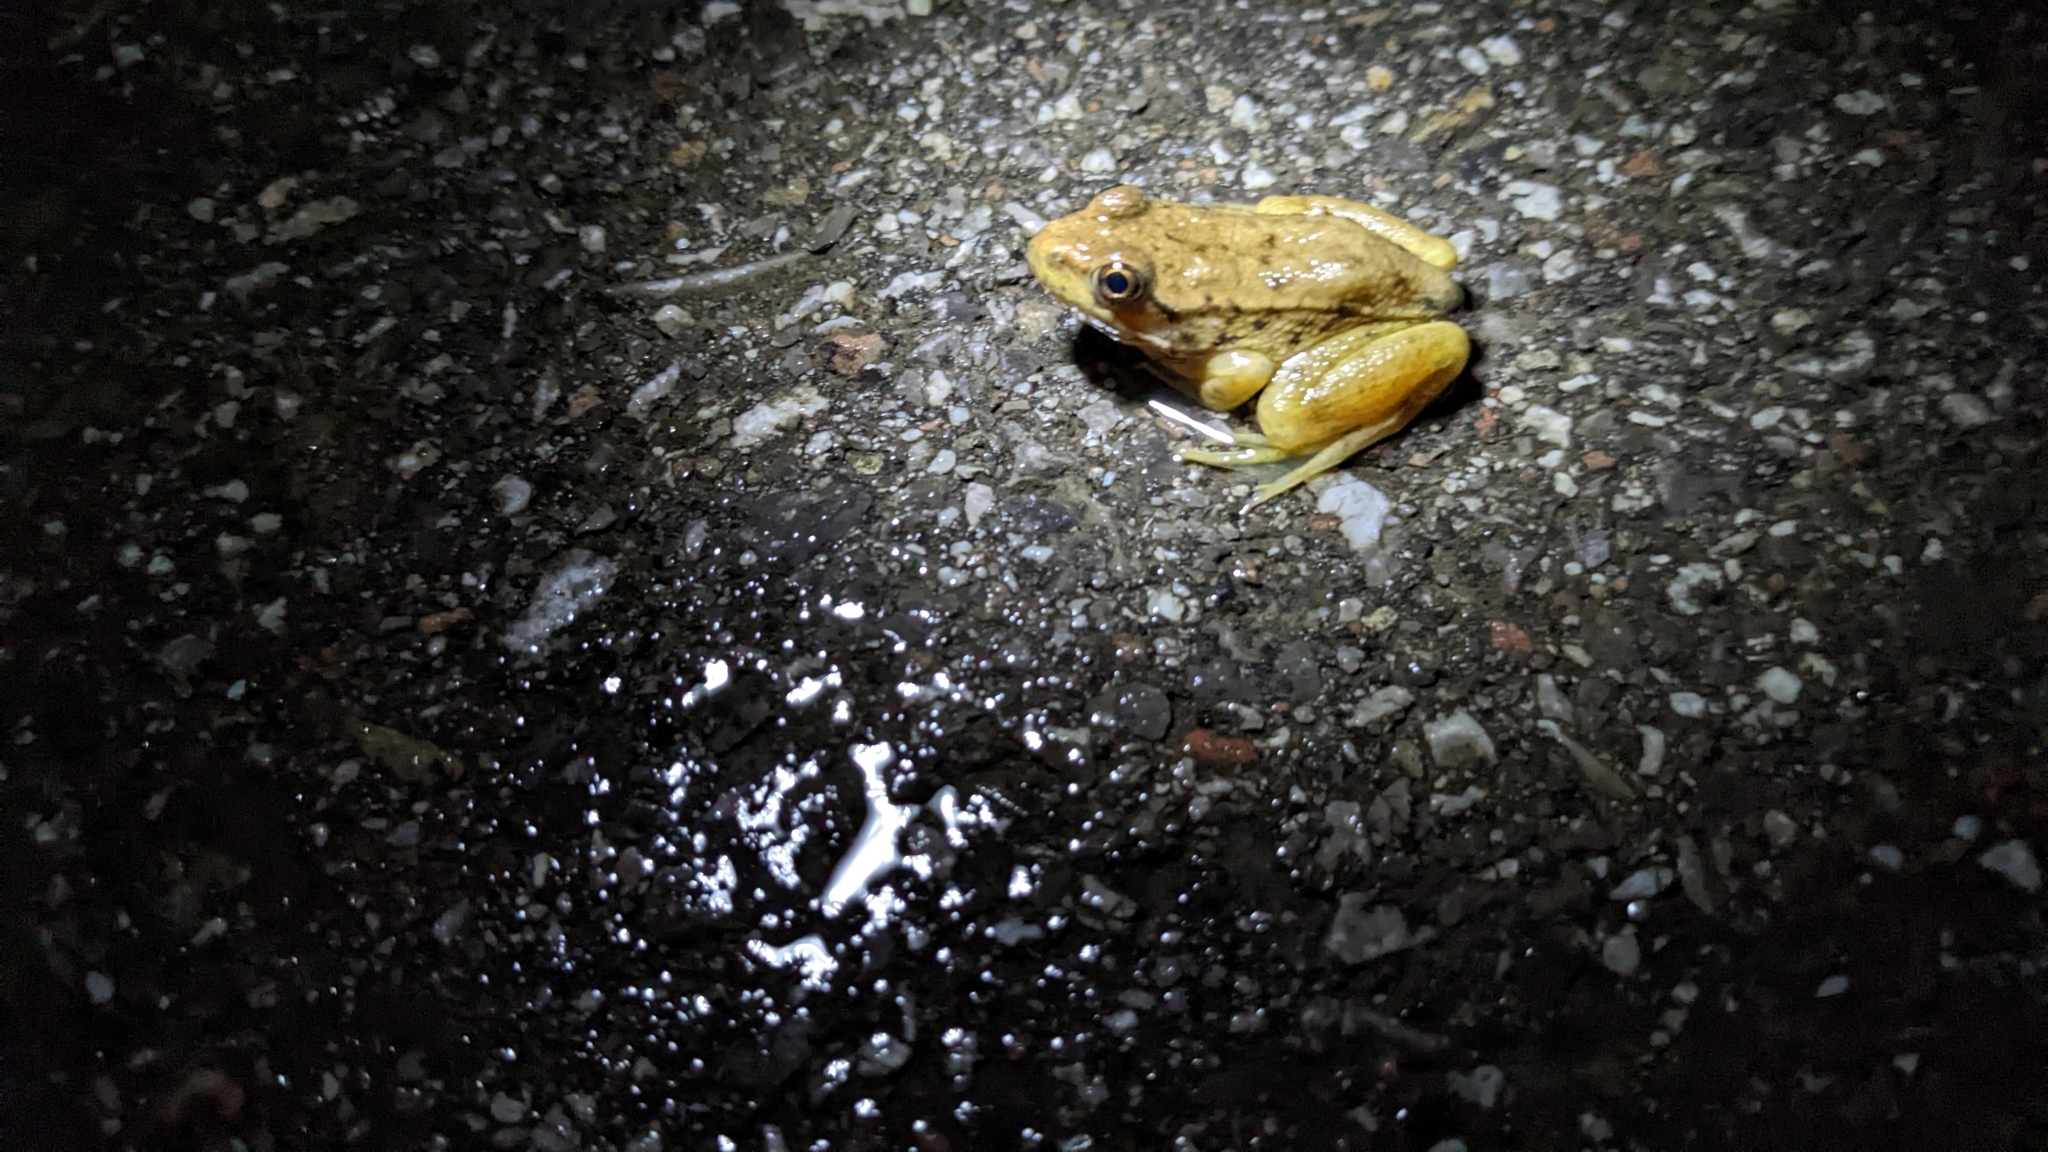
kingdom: Animalia
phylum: Chordata
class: Amphibia
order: Anura
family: Ranidae
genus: Lithobates
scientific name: Lithobates clamitans
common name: Green frog
